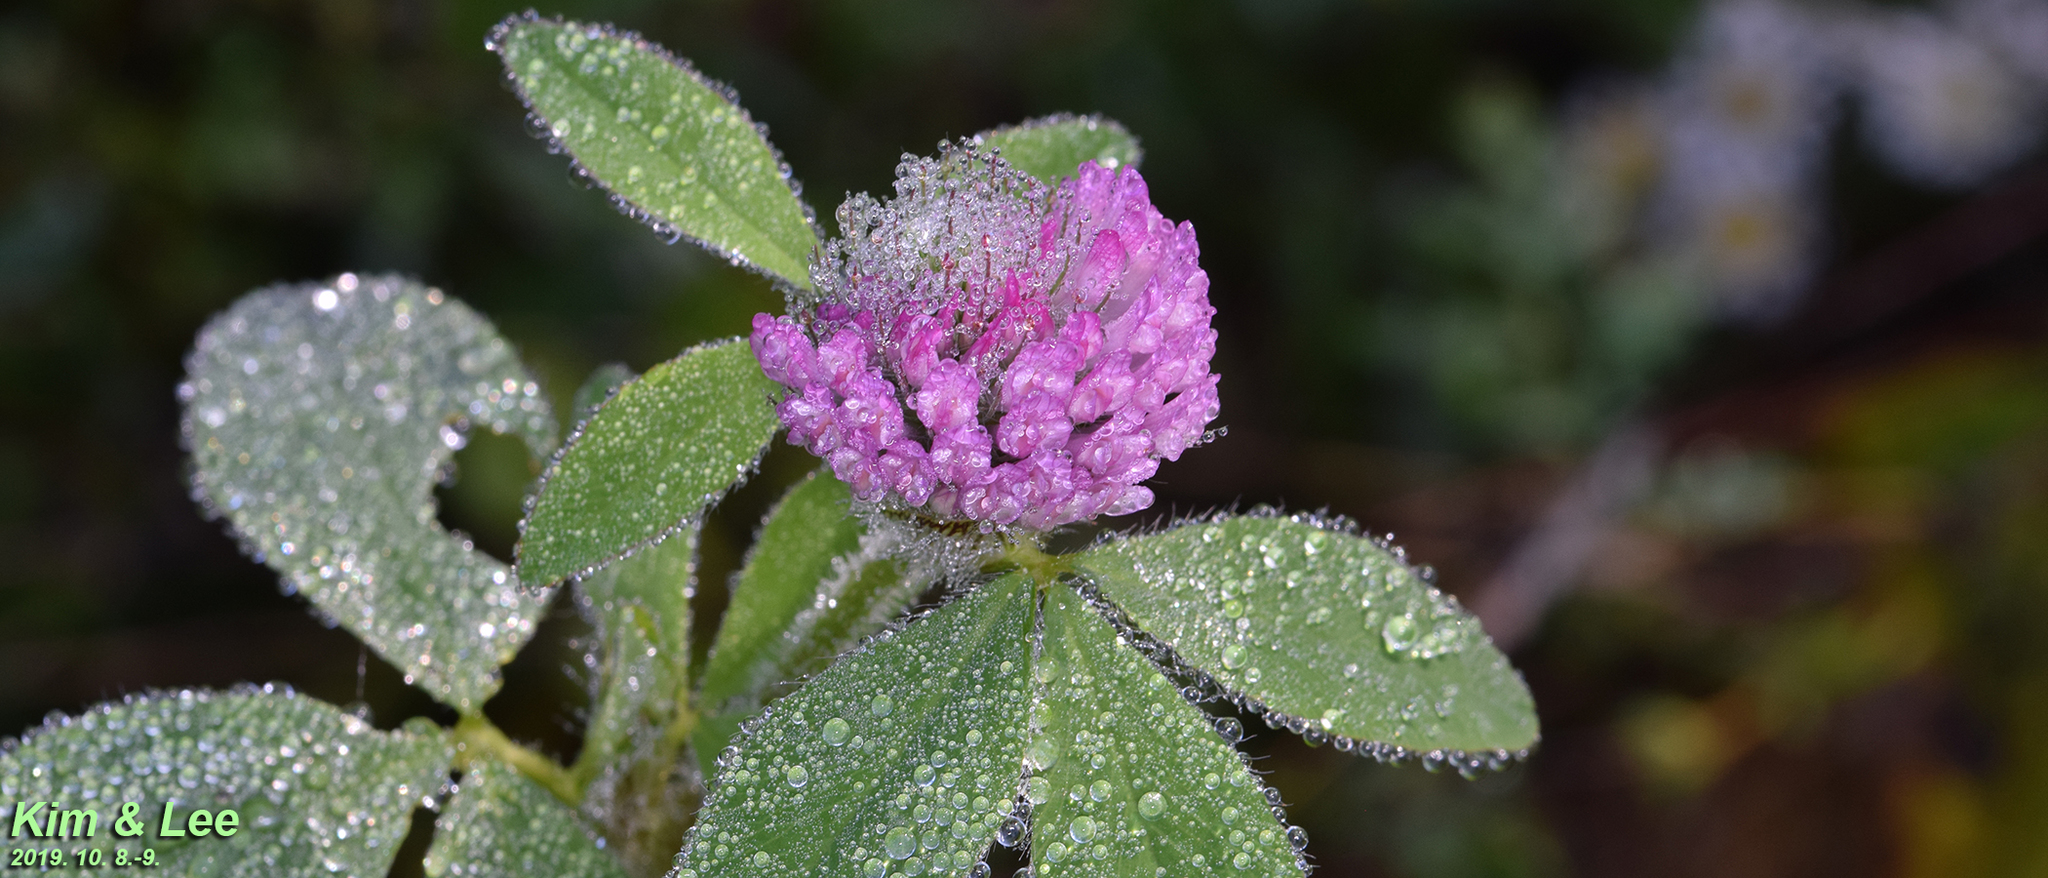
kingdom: Plantae
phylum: Tracheophyta
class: Magnoliopsida
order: Fabales
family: Fabaceae
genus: Trifolium
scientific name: Trifolium pratense
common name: Red clover
